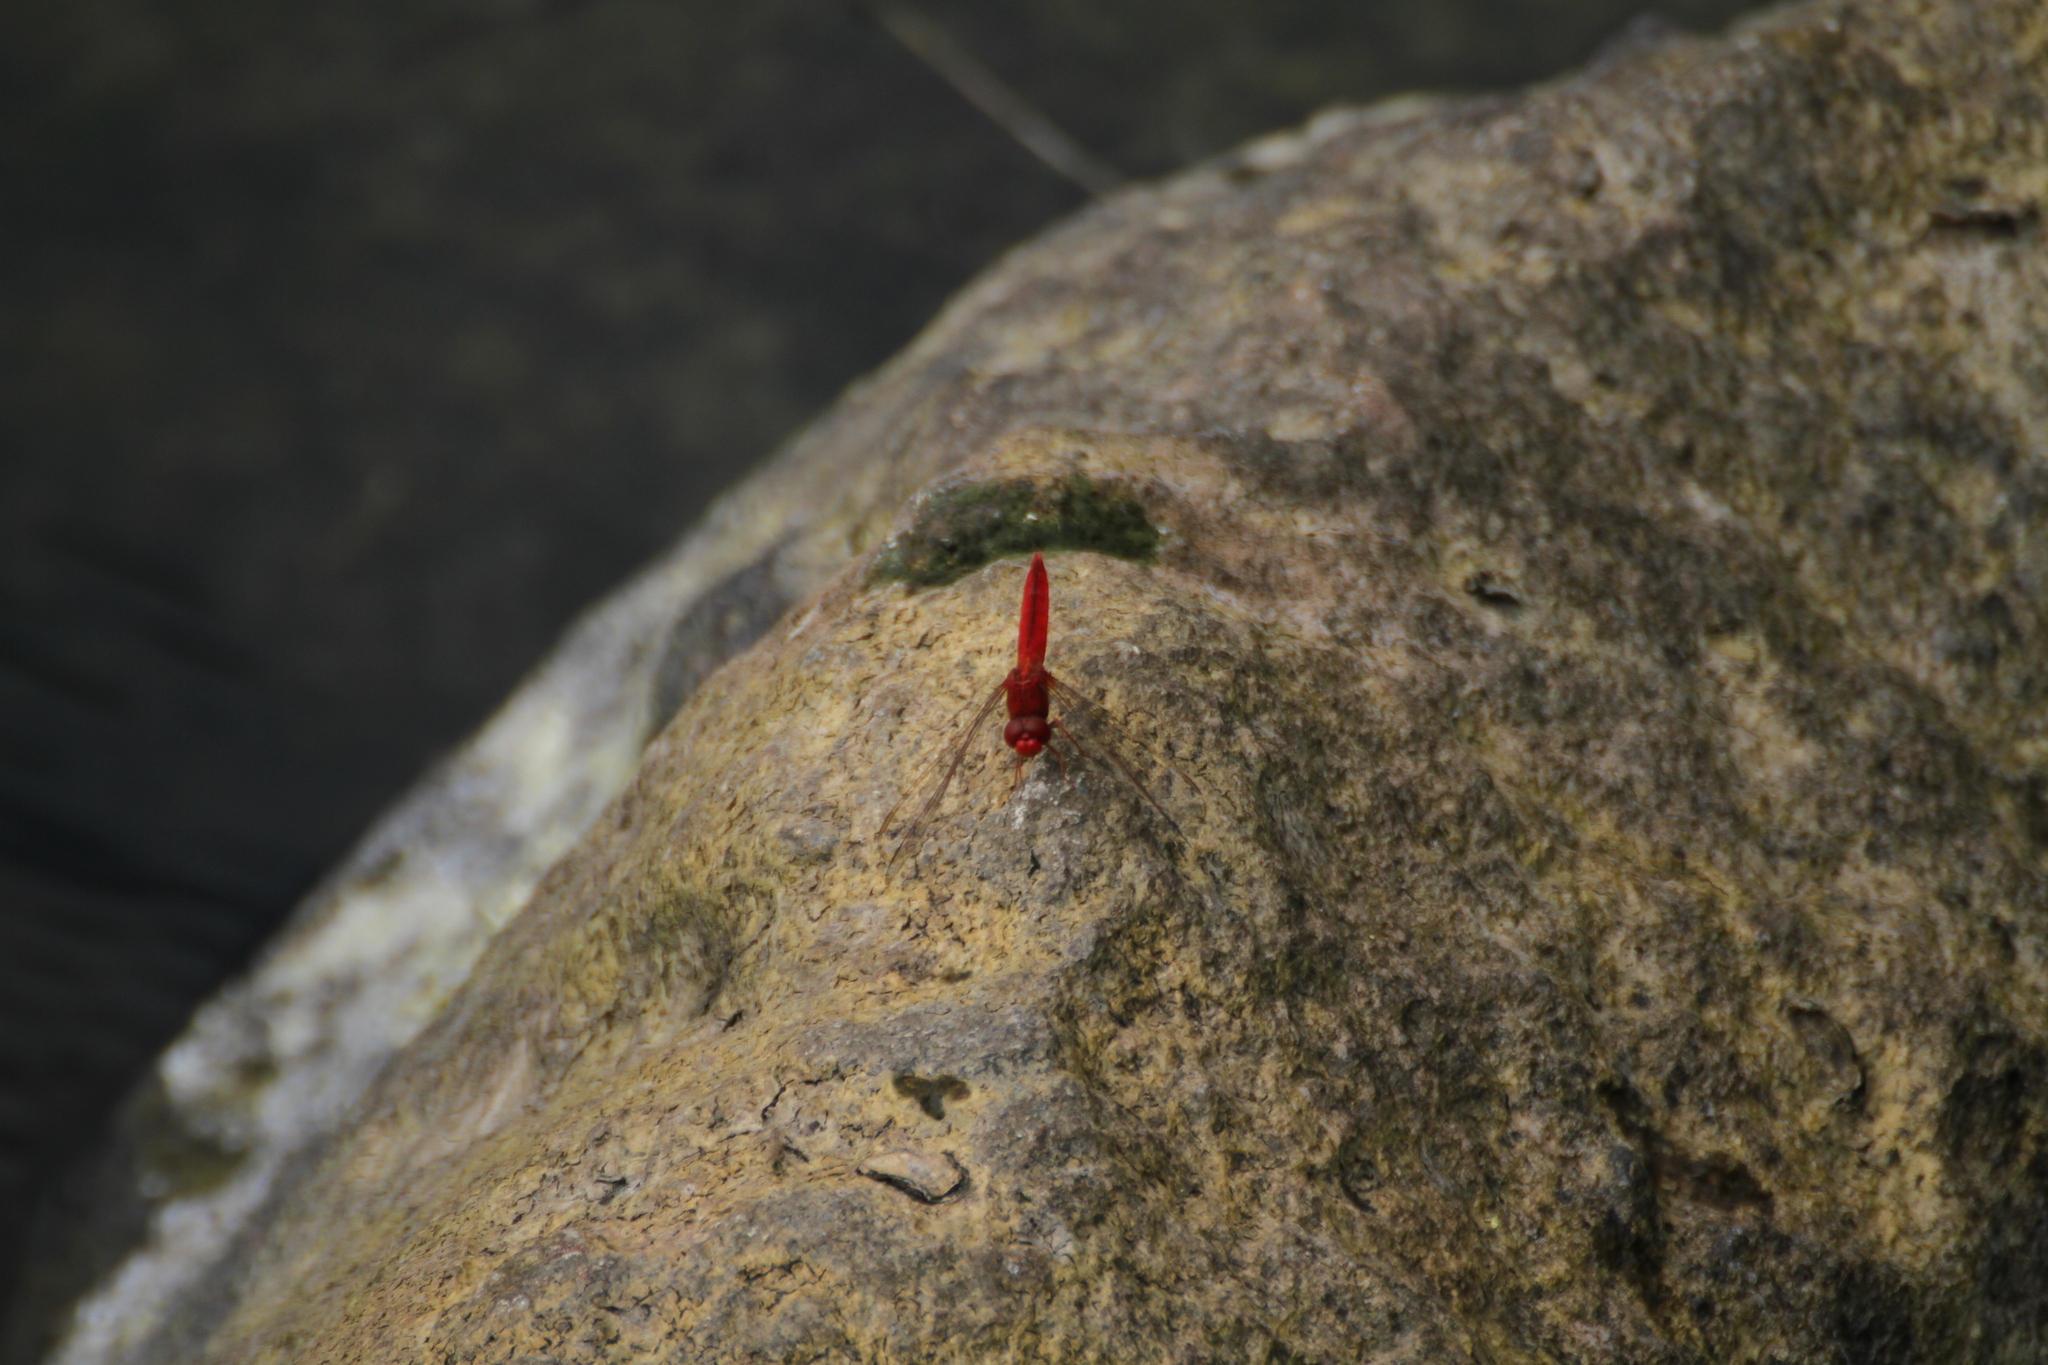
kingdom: Animalia
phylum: Arthropoda
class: Insecta
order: Odonata
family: Libellulidae
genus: Crocothemis
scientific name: Crocothemis servilia
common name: Scarlet skimmer
